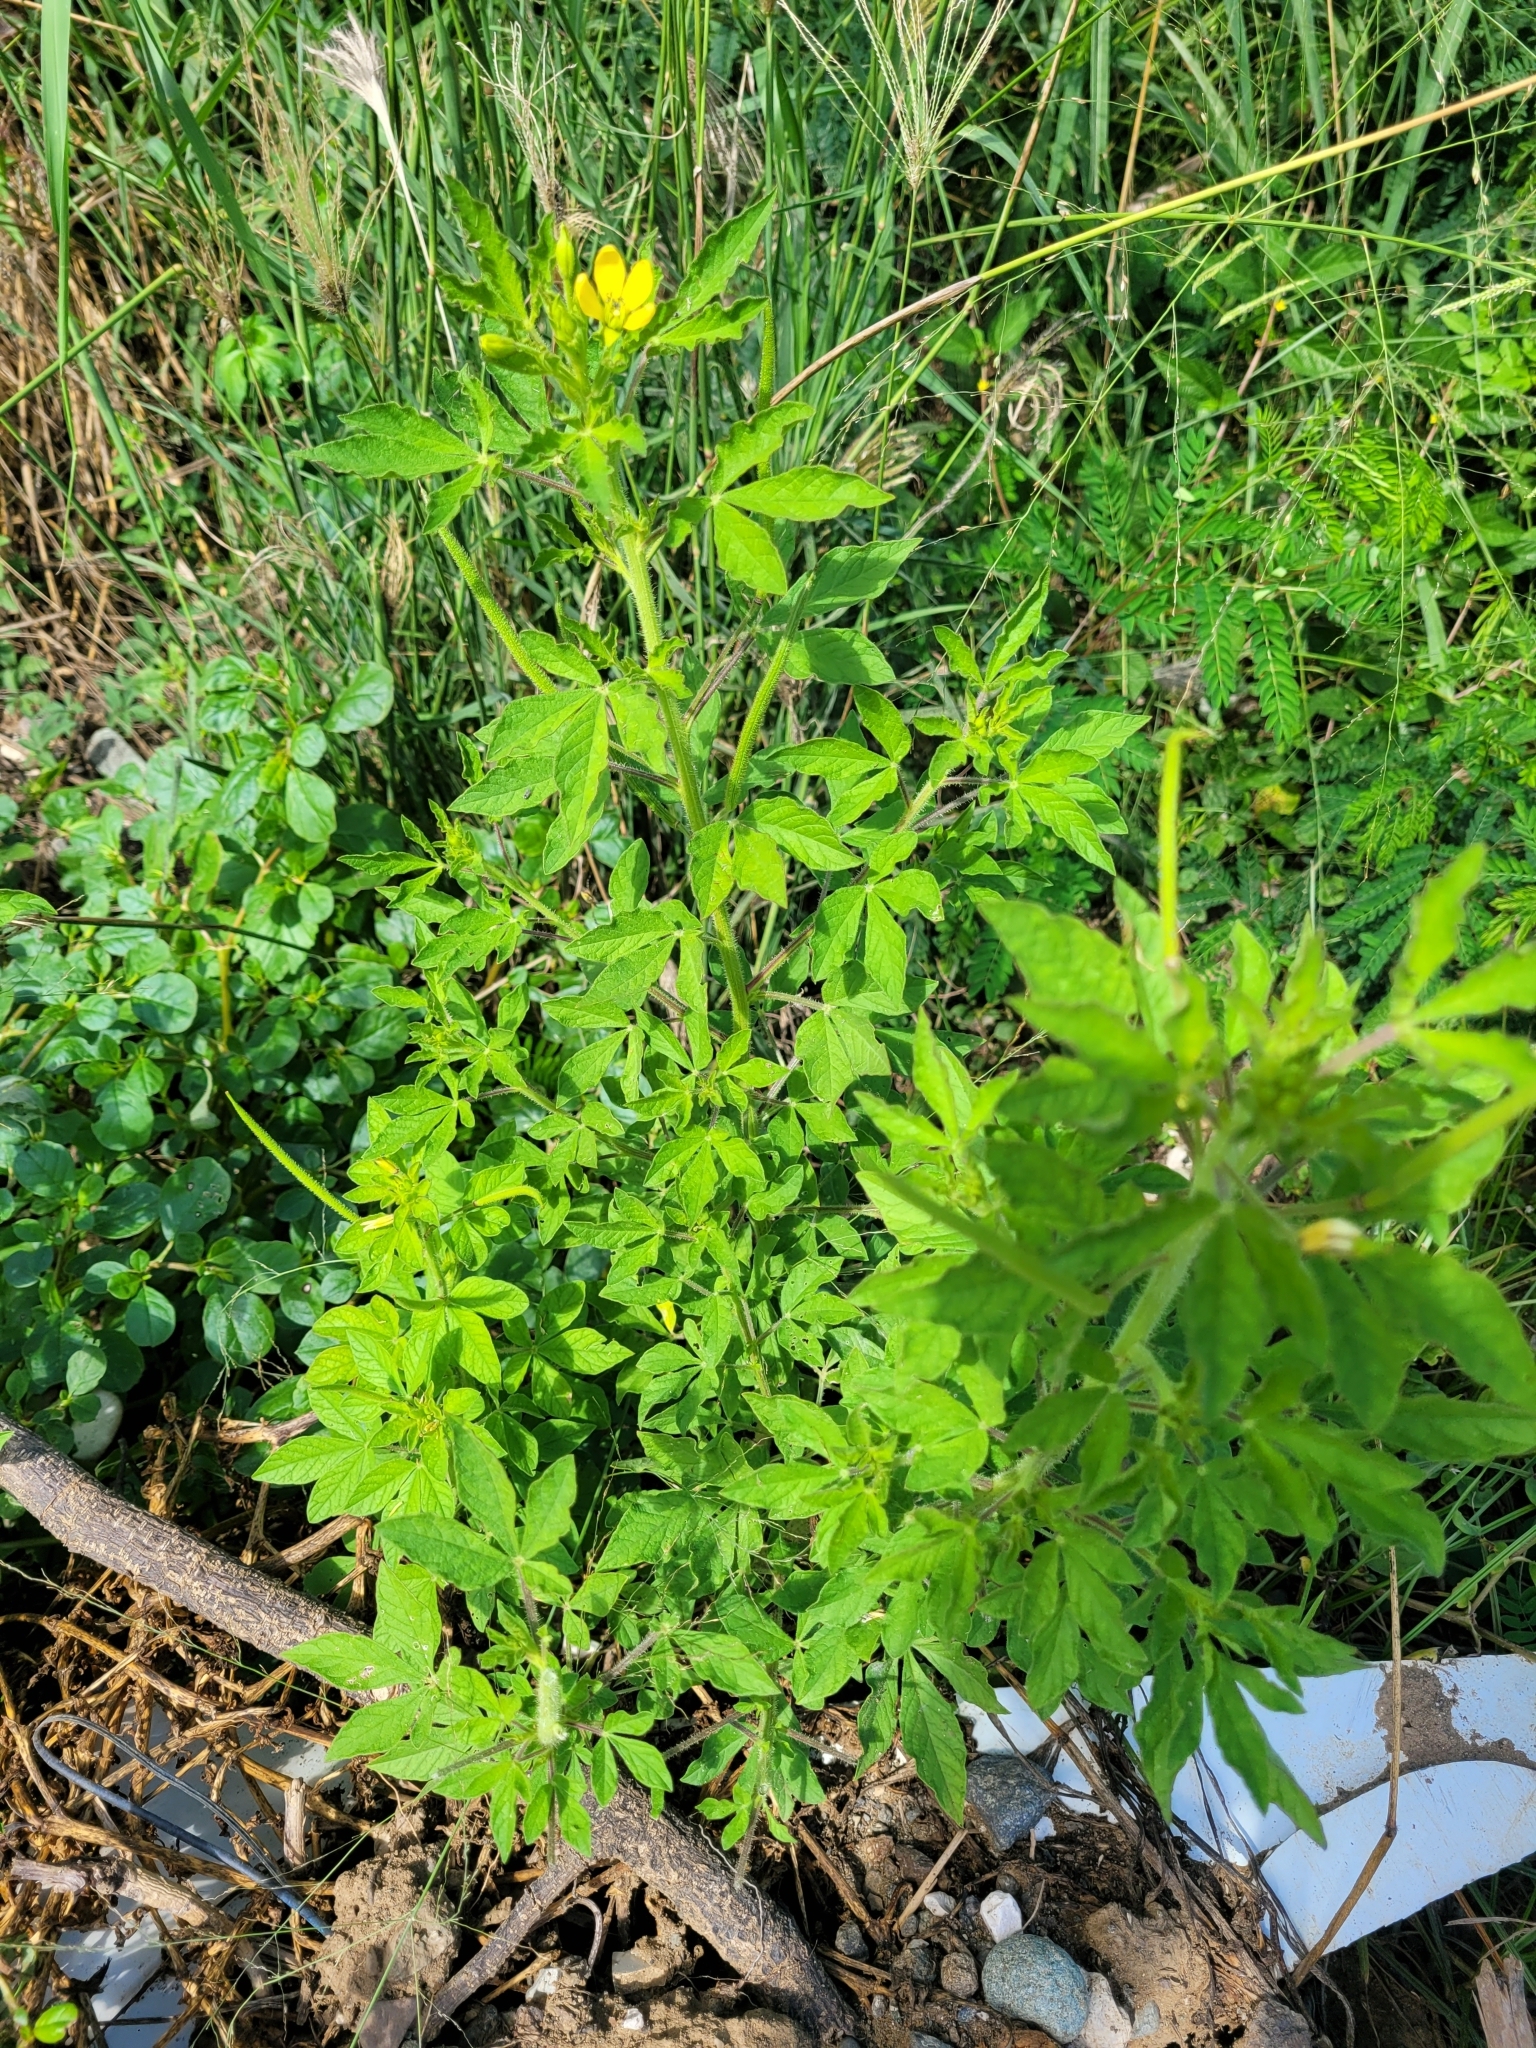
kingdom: Plantae
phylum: Tracheophyta
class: Magnoliopsida
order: Brassicales
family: Cleomaceae
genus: Arivela
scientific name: Arivela viscosa
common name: Asian spiderflower
